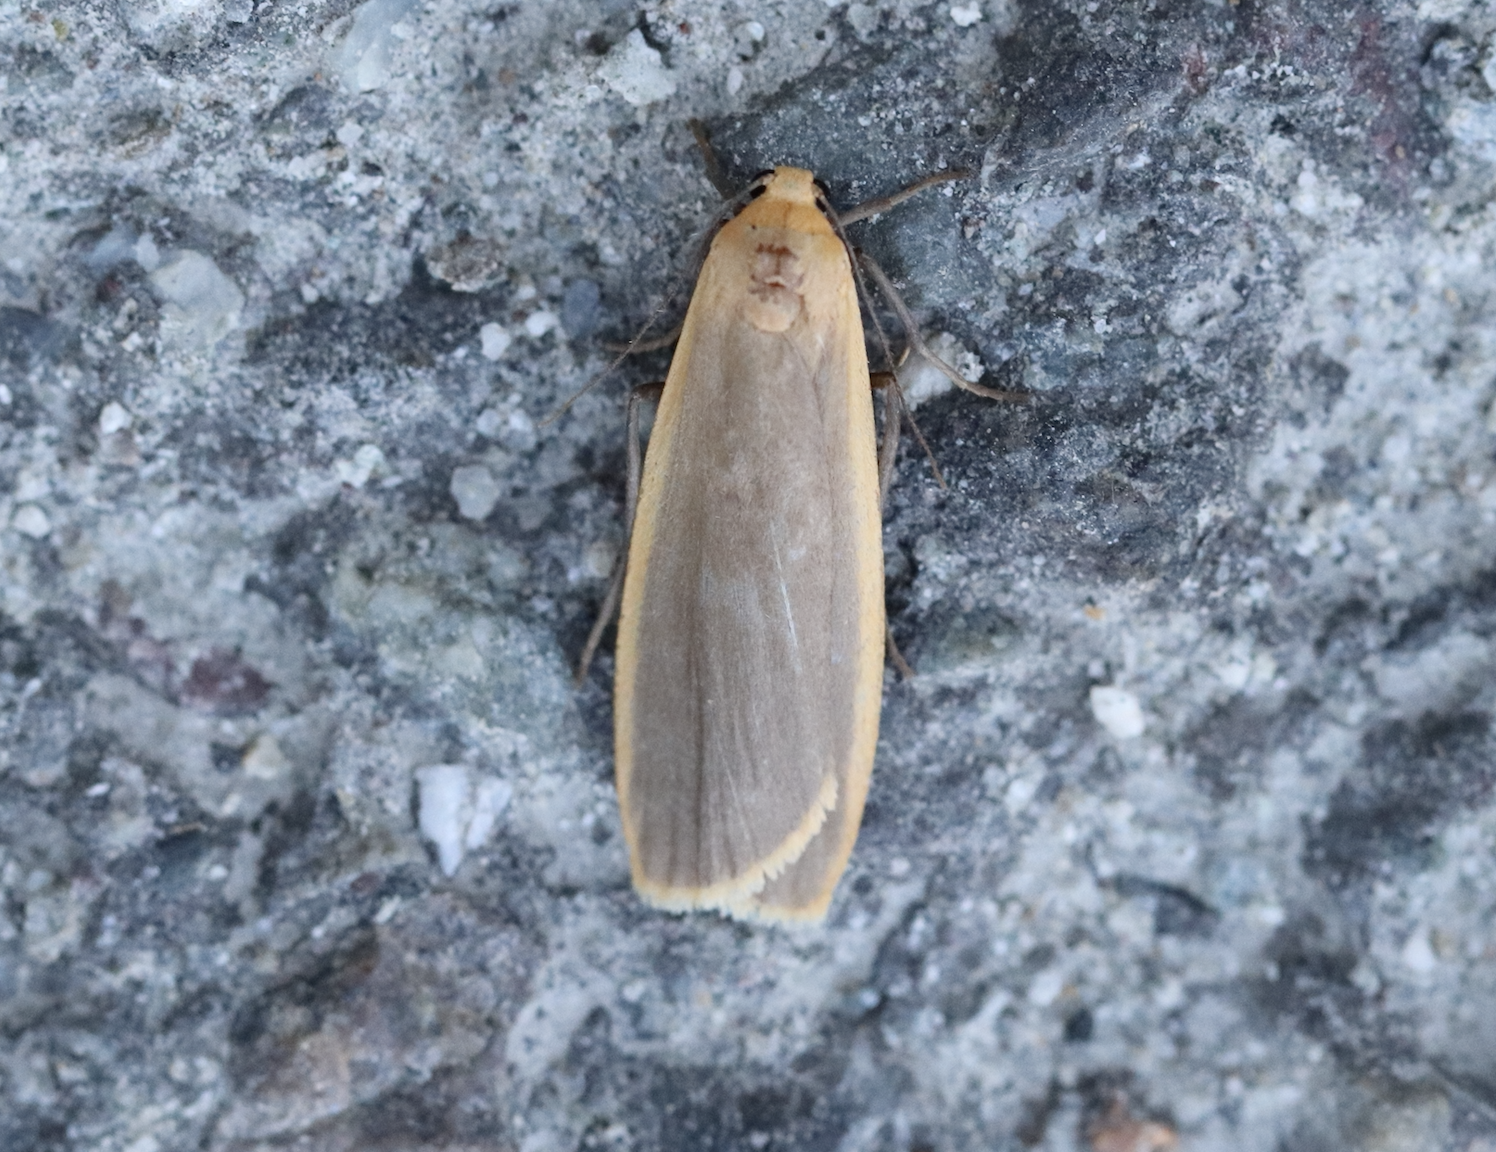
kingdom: Animalia
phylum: Arthropoda
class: Insecta
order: Lepidoptera
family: Erebidae
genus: Nyea
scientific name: Nyea lurideola
